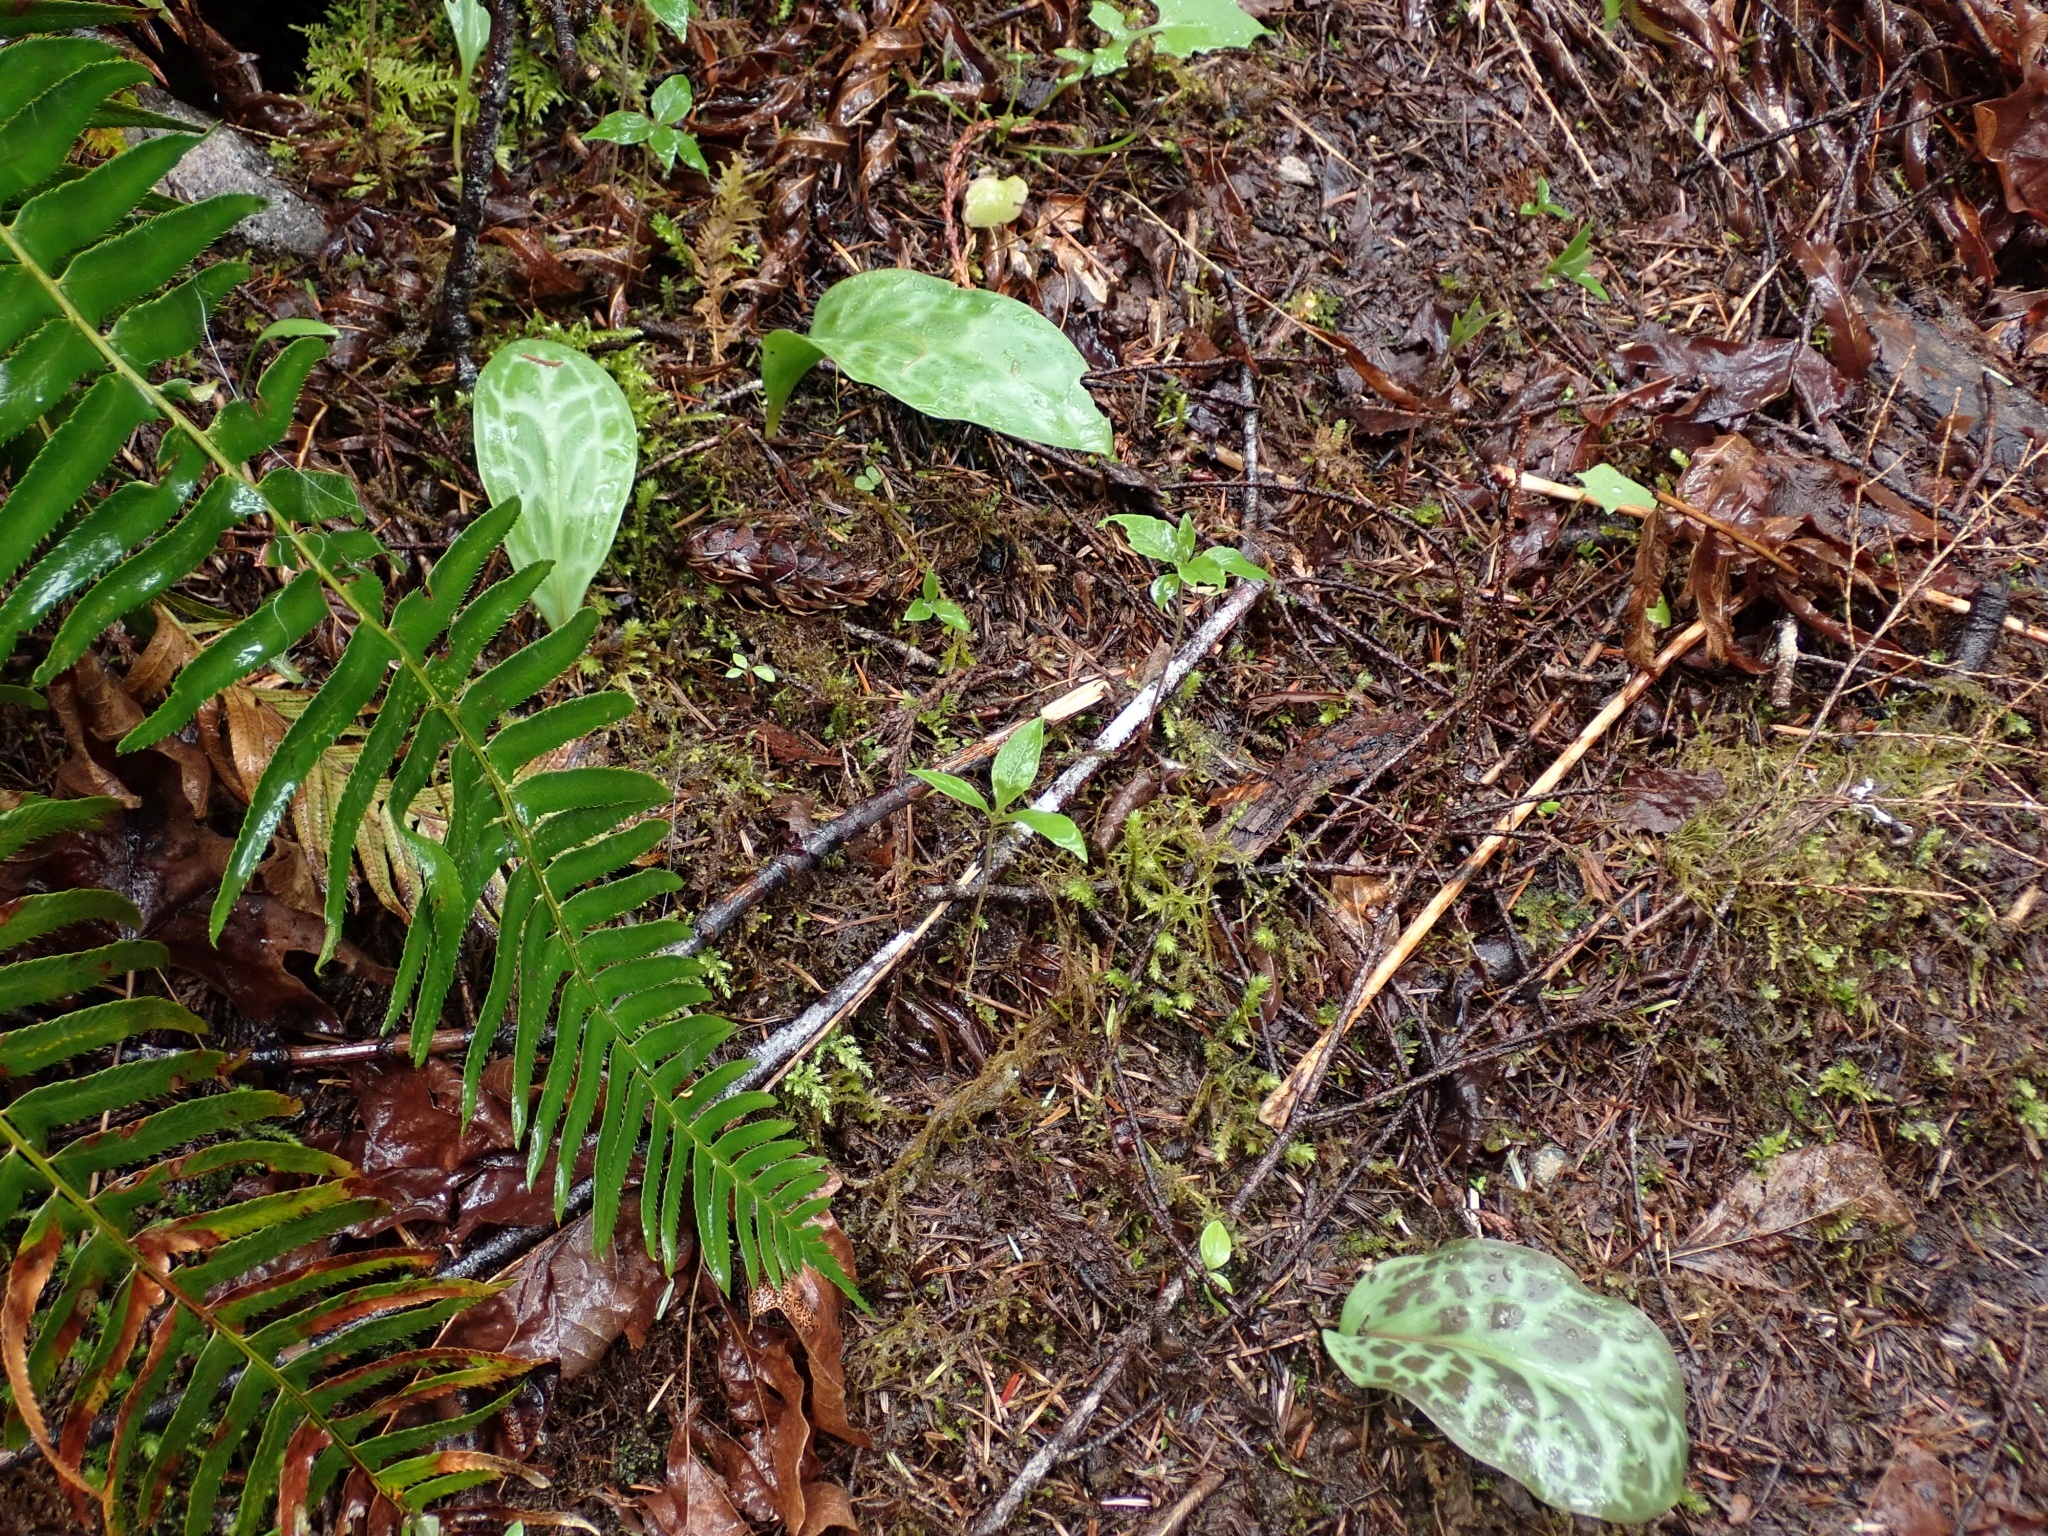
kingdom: Plantae
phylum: Tracheophyta
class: Liliopsida
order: Liliales
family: Liliaceae
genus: Erythronium
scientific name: Erythronium oregonum
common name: Giant adder's-tongue
